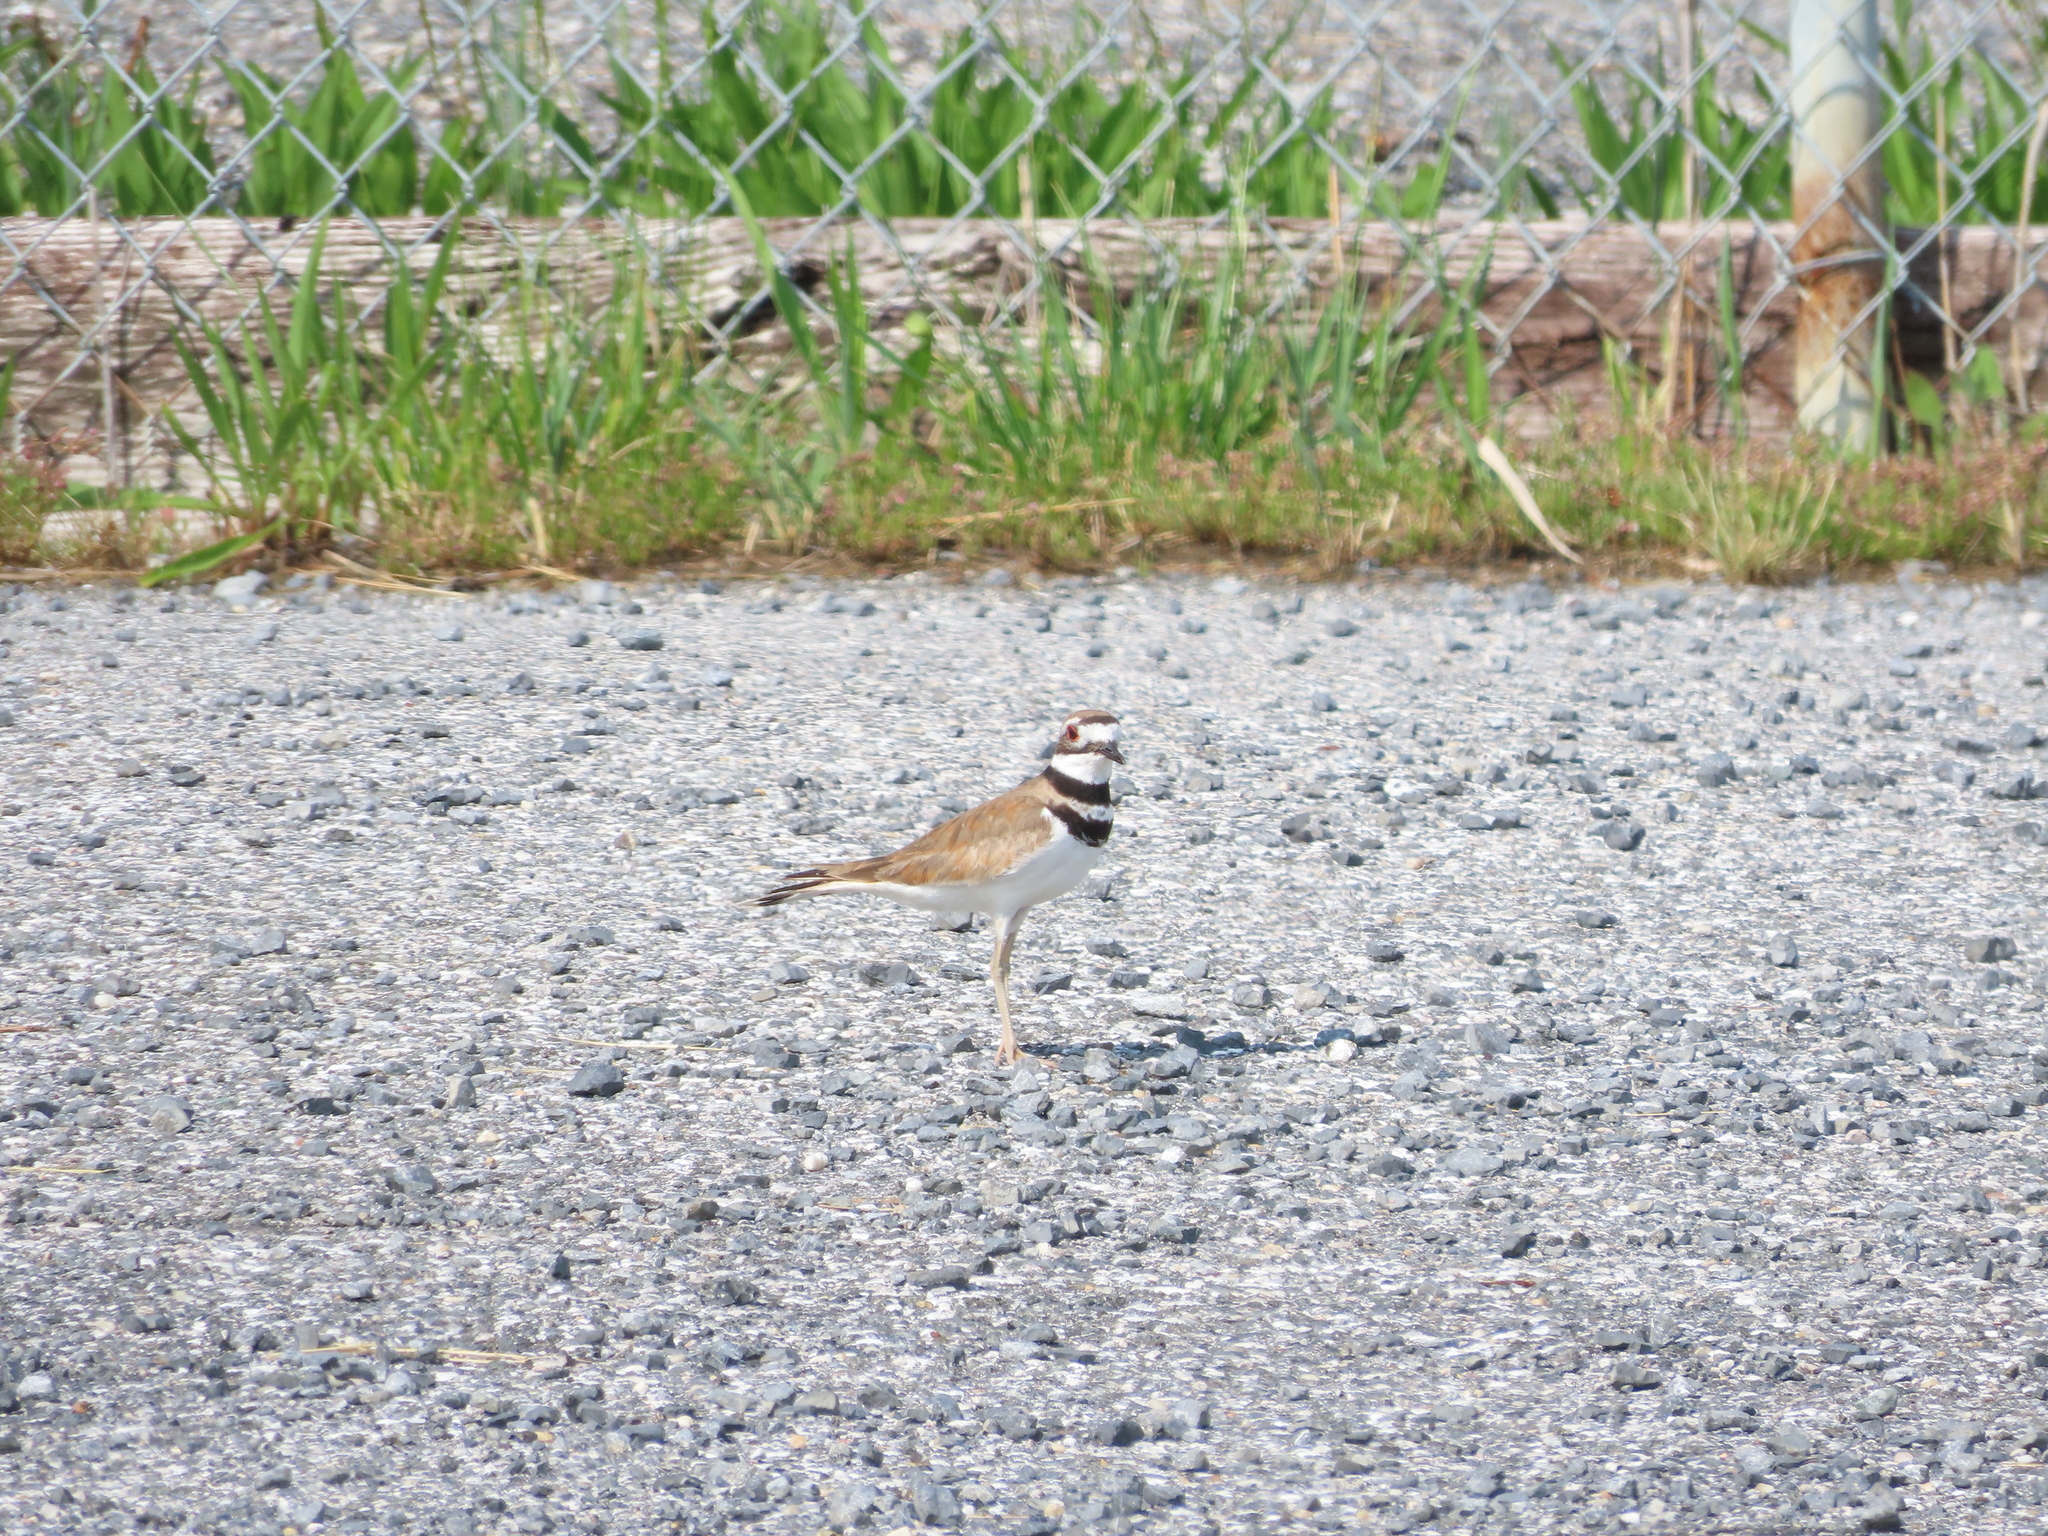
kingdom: Animalia
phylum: Chordata
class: Aves
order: Charadriiformes
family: Charadriidae
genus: Charadrius
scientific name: Charadrius vociferus
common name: Killdeer
